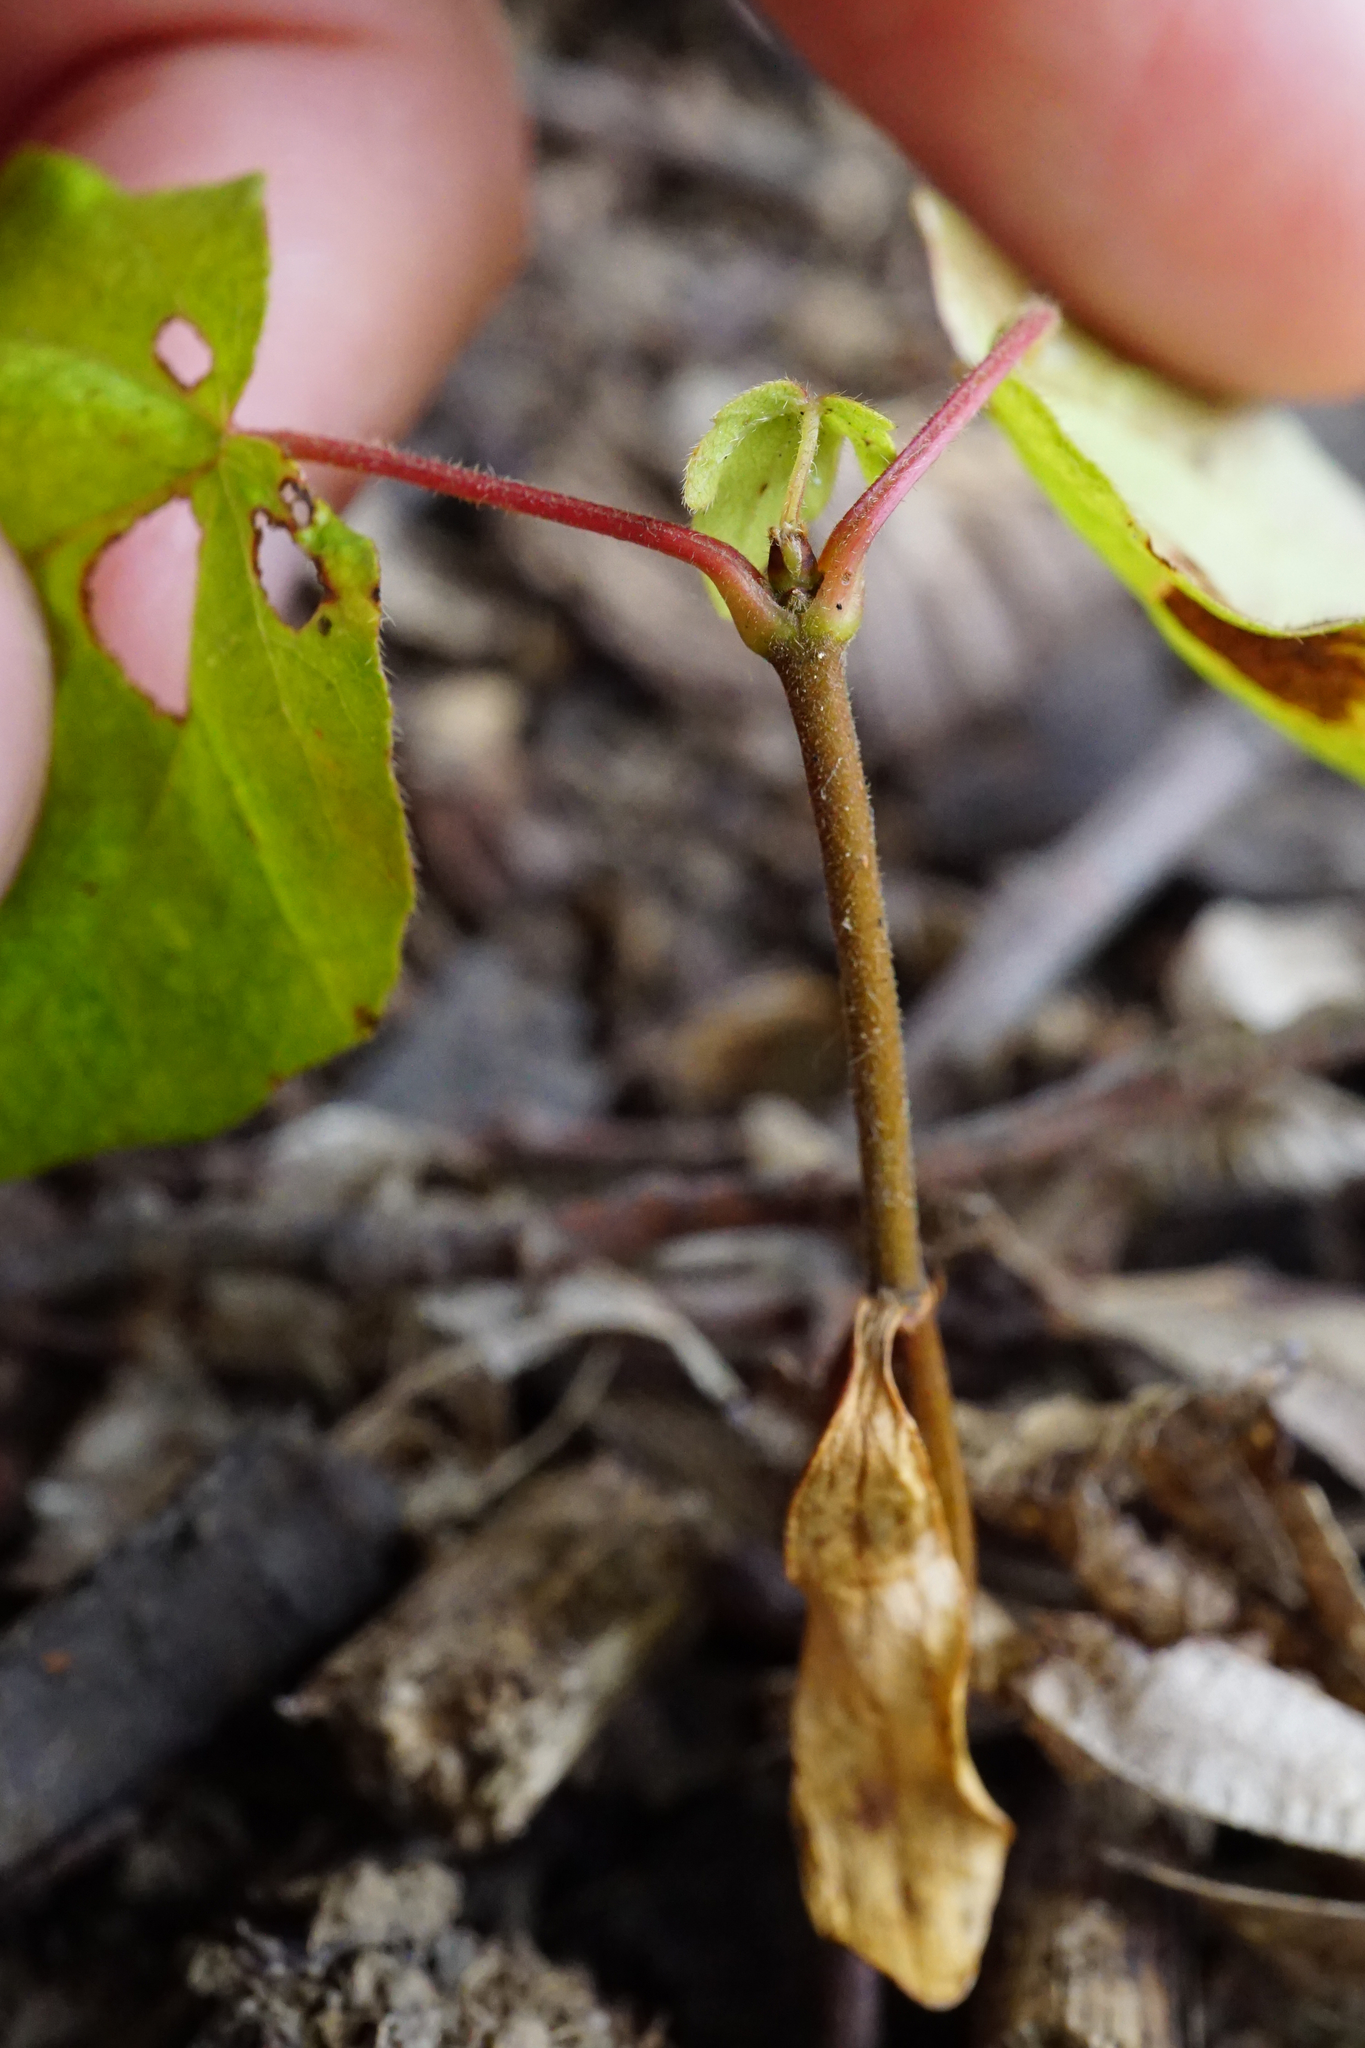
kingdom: Plantae
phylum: Tracheophyta
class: Magnoliopsida
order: Sapindales
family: Sapindaceae
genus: Acer
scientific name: Acer campestre
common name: Field maple
